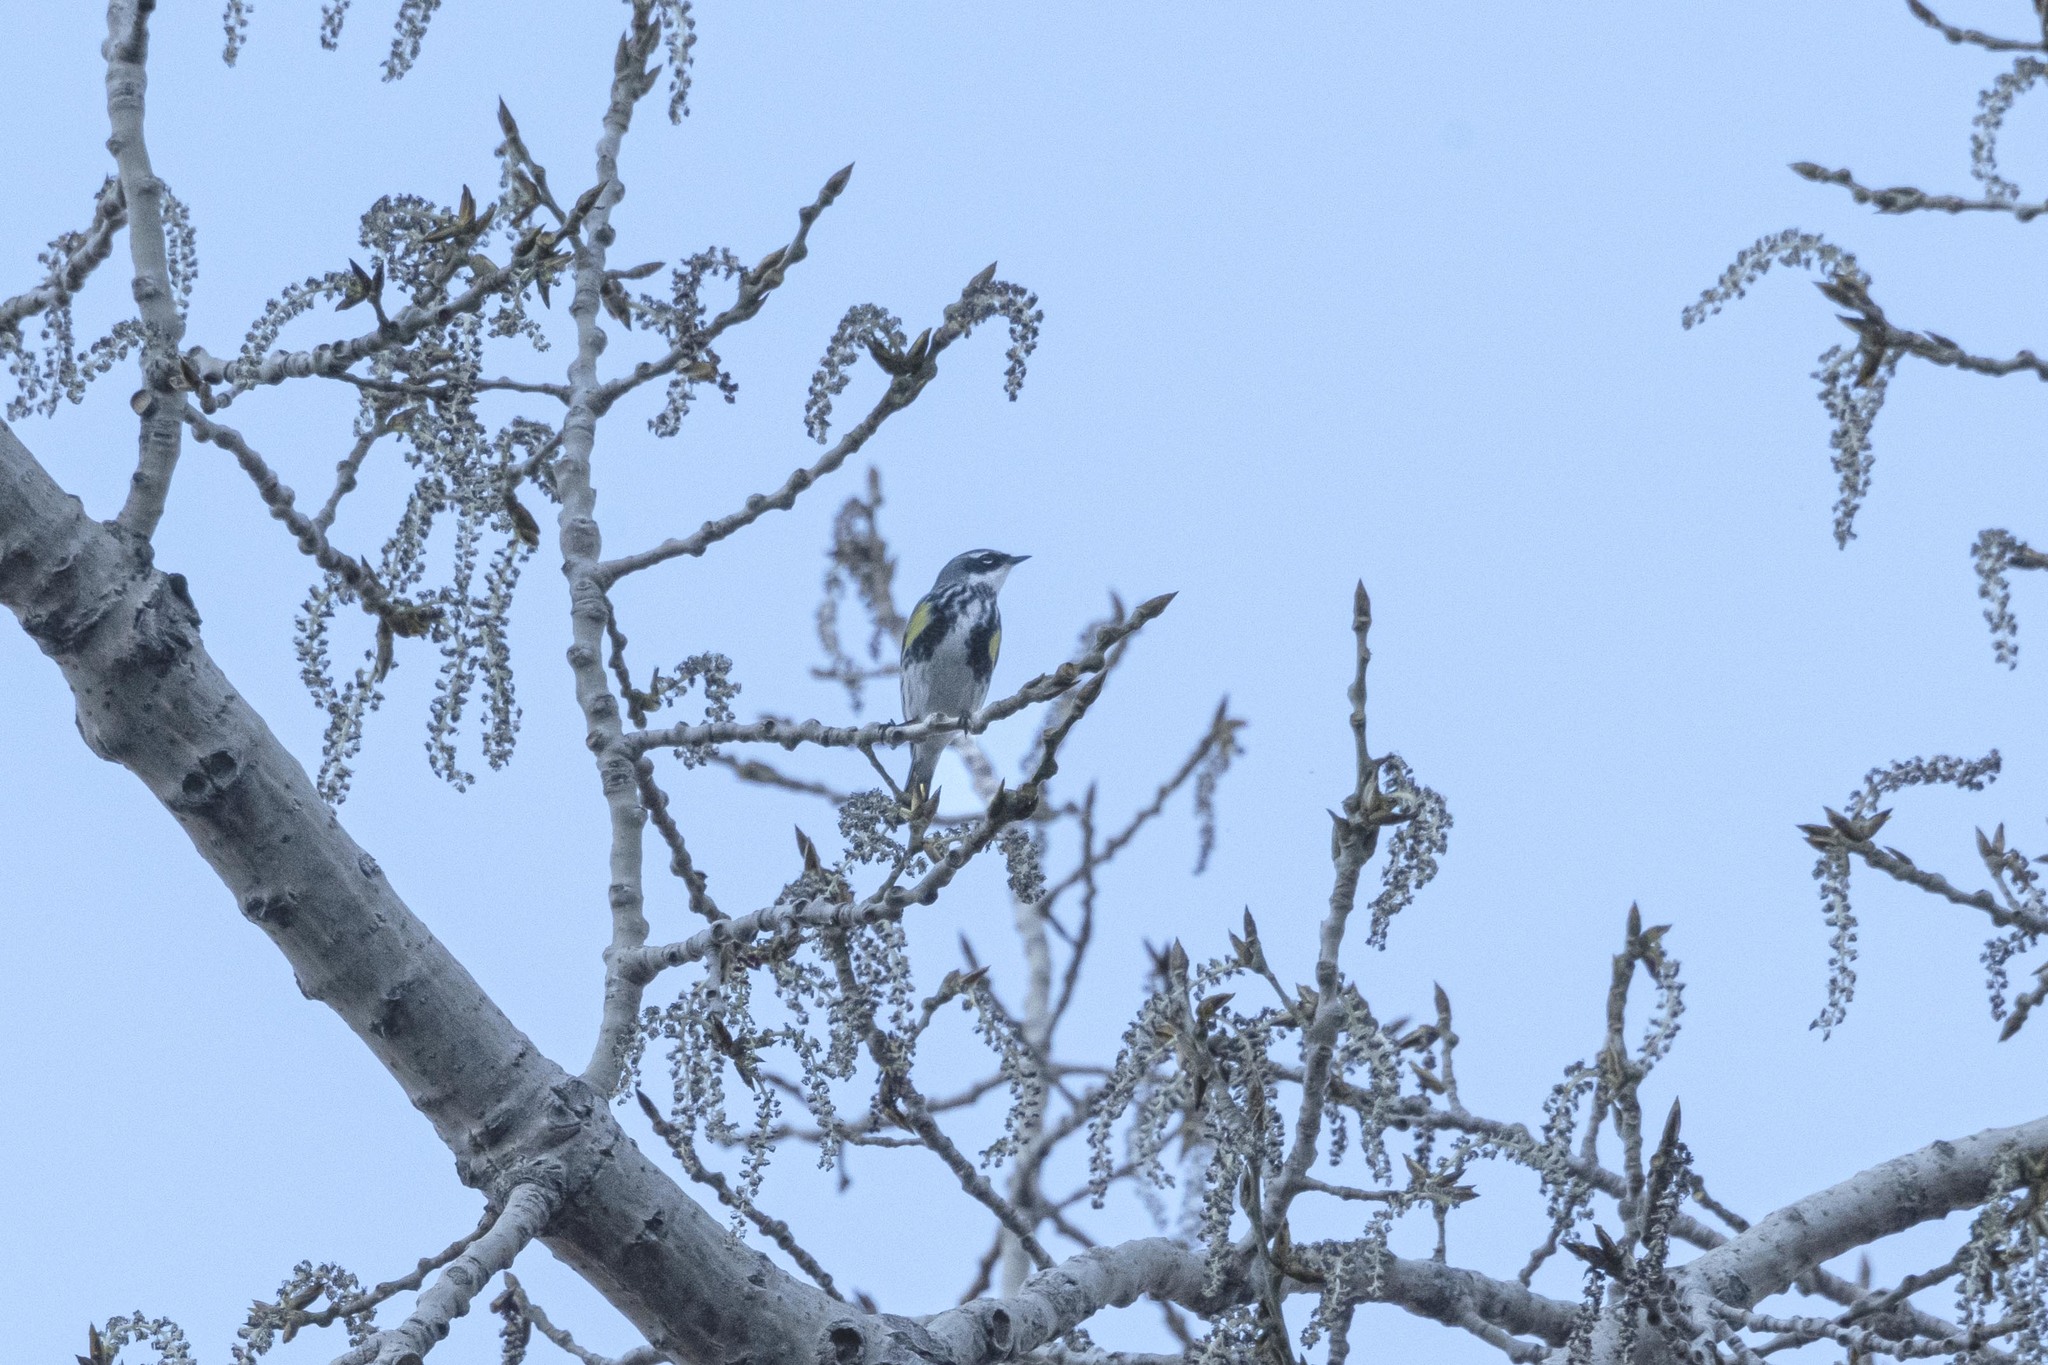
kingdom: Animalia
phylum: Chordata
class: Aves
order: Passeriformes
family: Parulidae
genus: Setophaga
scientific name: Setophaga coronata
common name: Myrtle warbler
